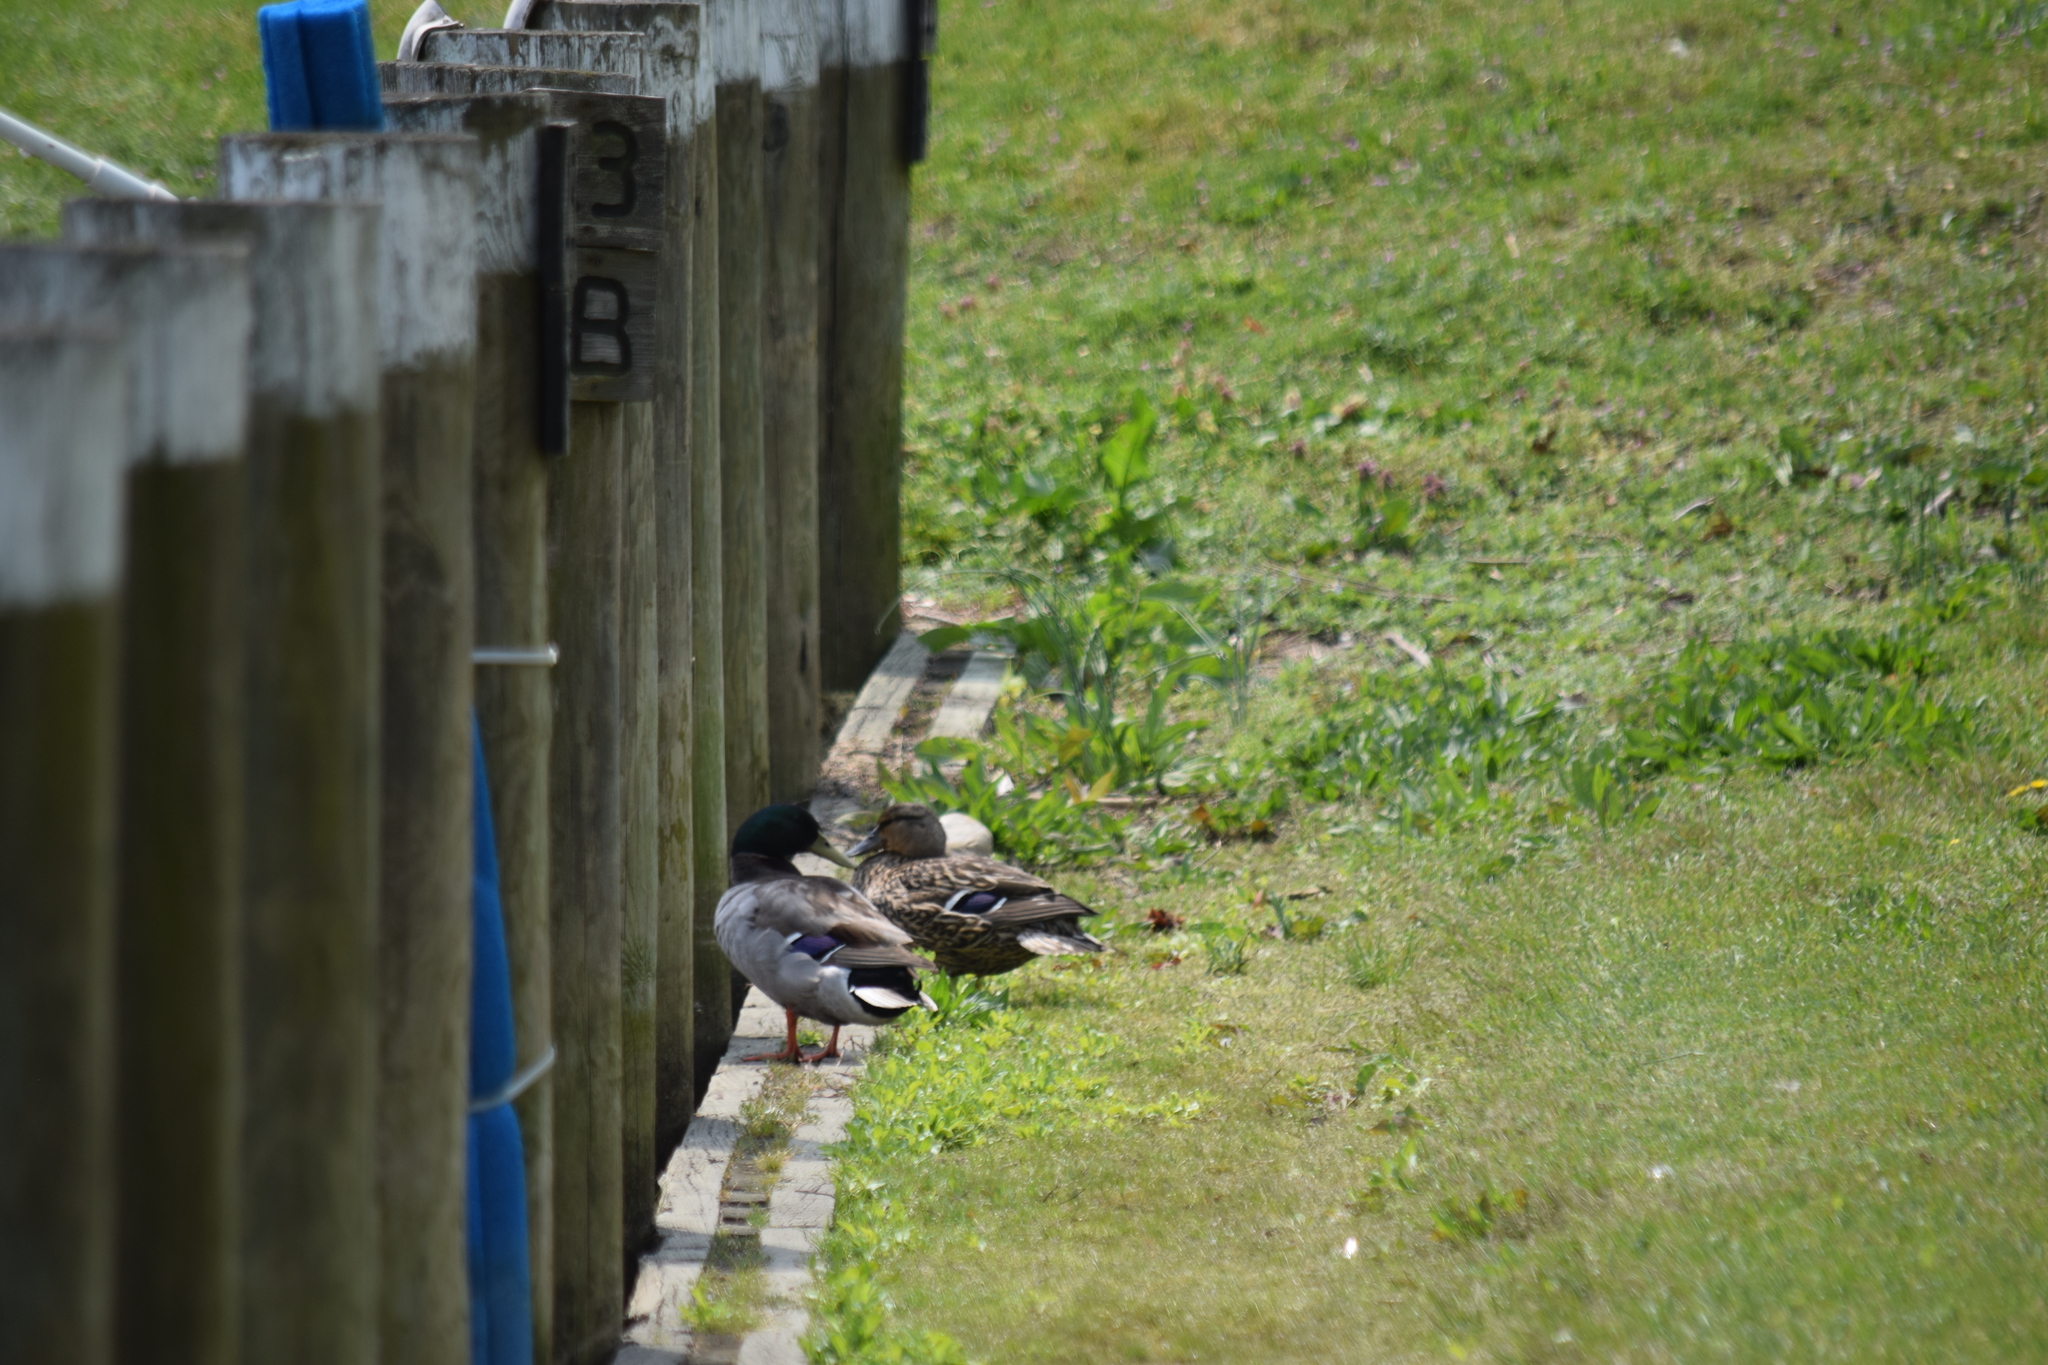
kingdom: Animalia
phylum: Chordata
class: Aves
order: Anseriformes
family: Anatidae
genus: Anas
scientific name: Anas platyrhynchos
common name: Mallard
